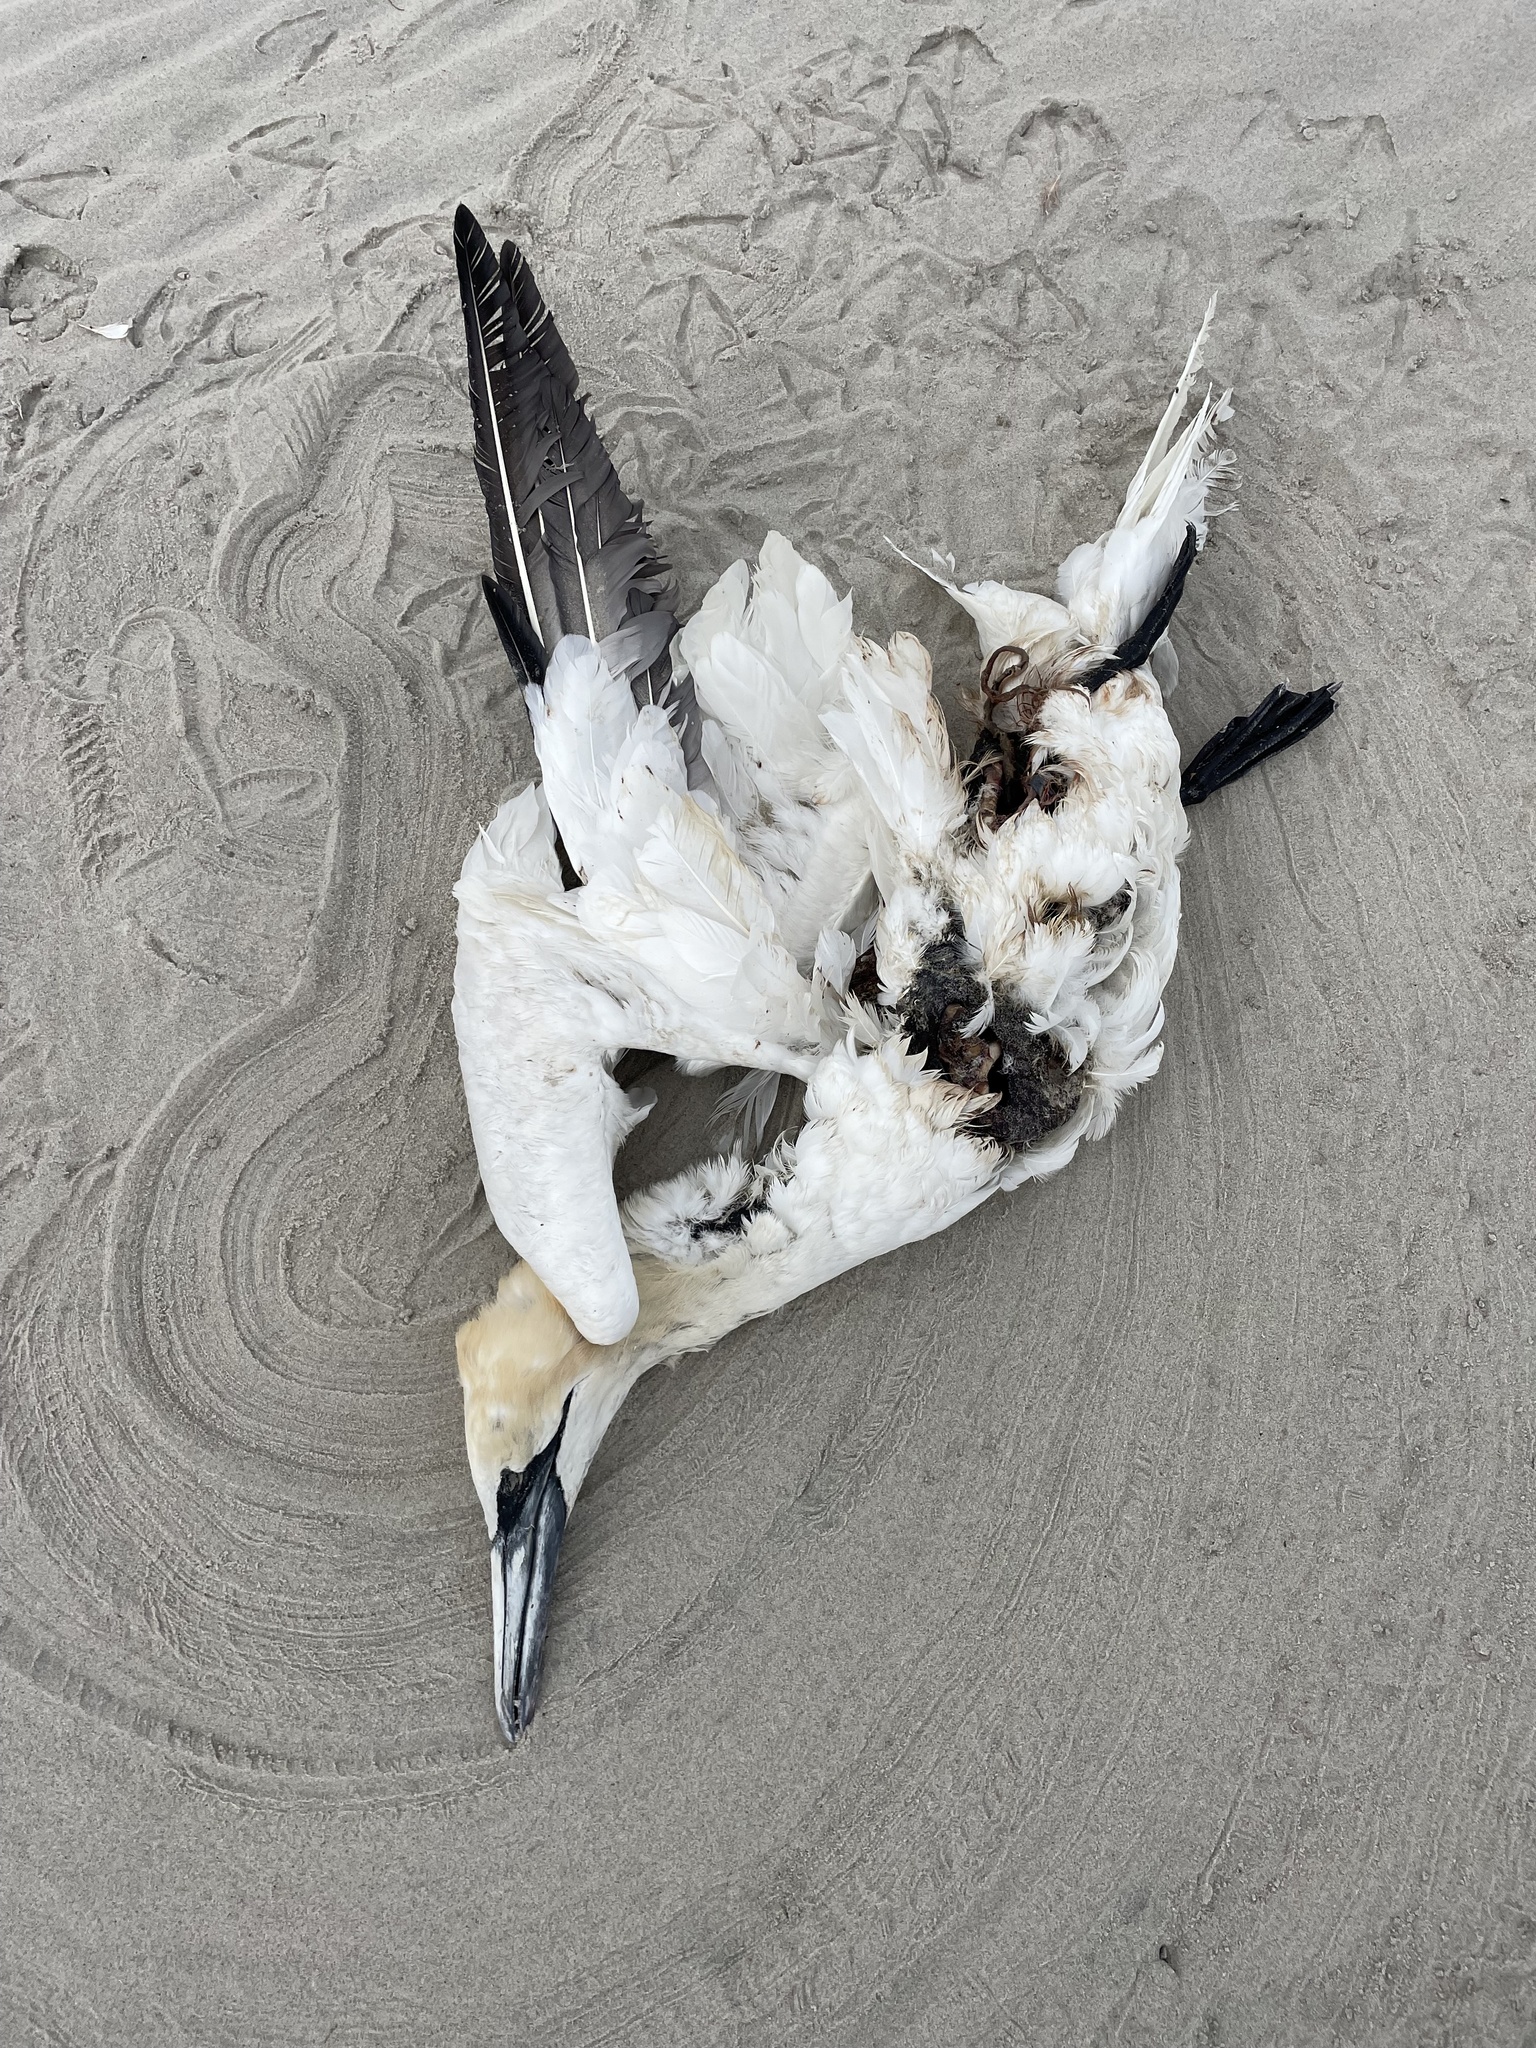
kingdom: Animalia
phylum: Chordata
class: Aves
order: Suliformes
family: Sulidae
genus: Morus
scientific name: Morus bassanus
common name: Northern gannet
